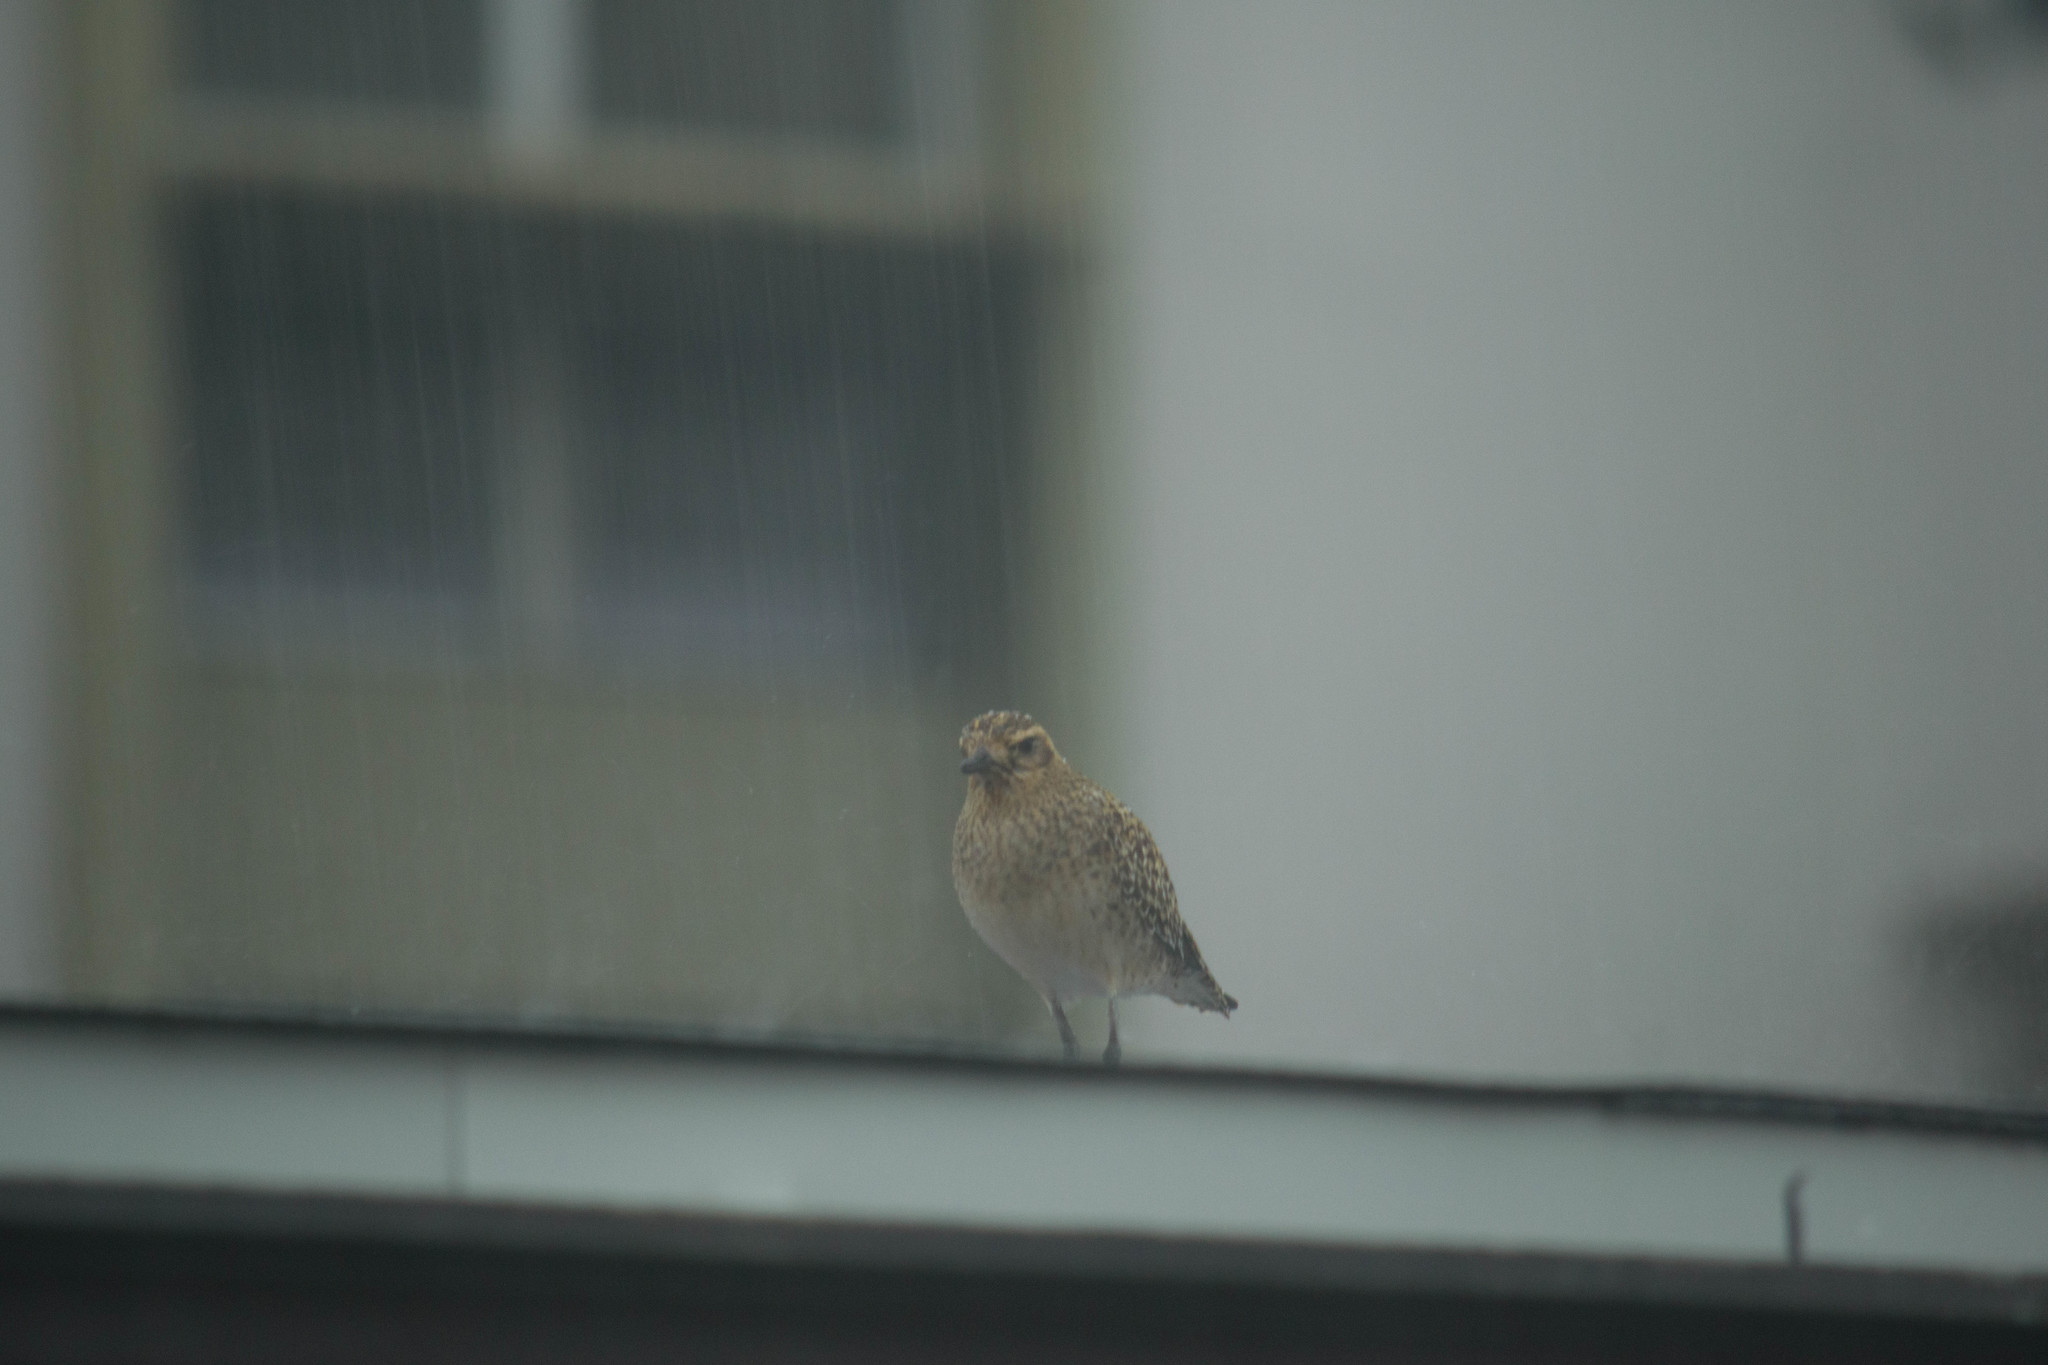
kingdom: Animalia
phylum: Chordata
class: Aves
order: Charadriiformes
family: Charadriidae
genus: Pluvialis
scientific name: Pluvialis fulva
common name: Pacific golden plover
